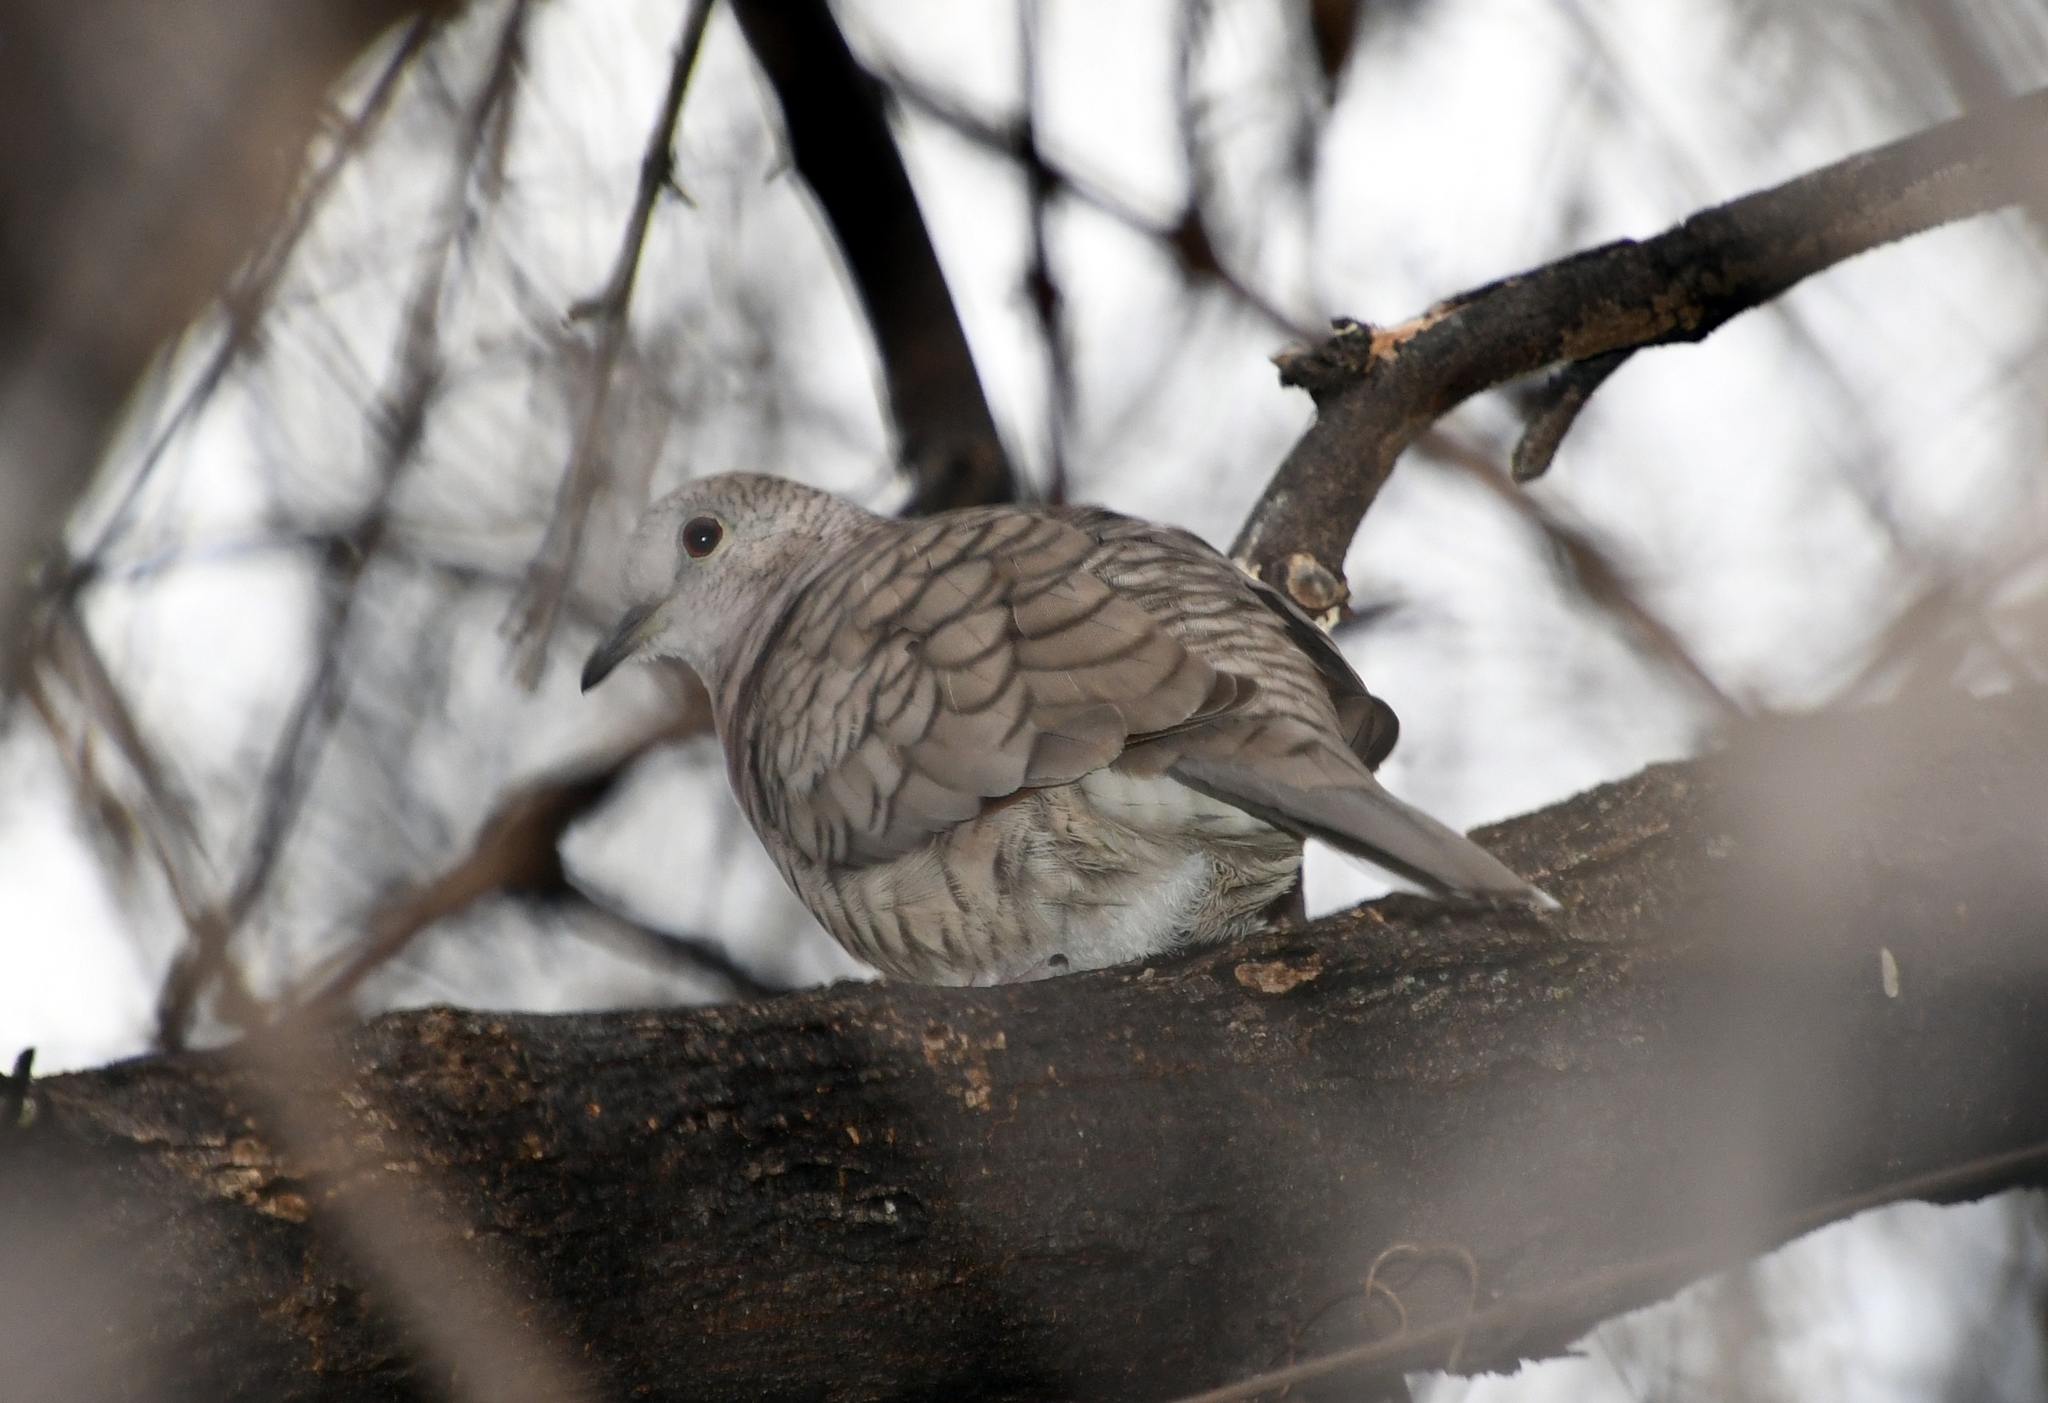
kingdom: Animalia
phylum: Chordata
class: Aves
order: Columbiformes
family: Columbidae
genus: Columbina
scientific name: Columbina inca
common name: Inca dove
